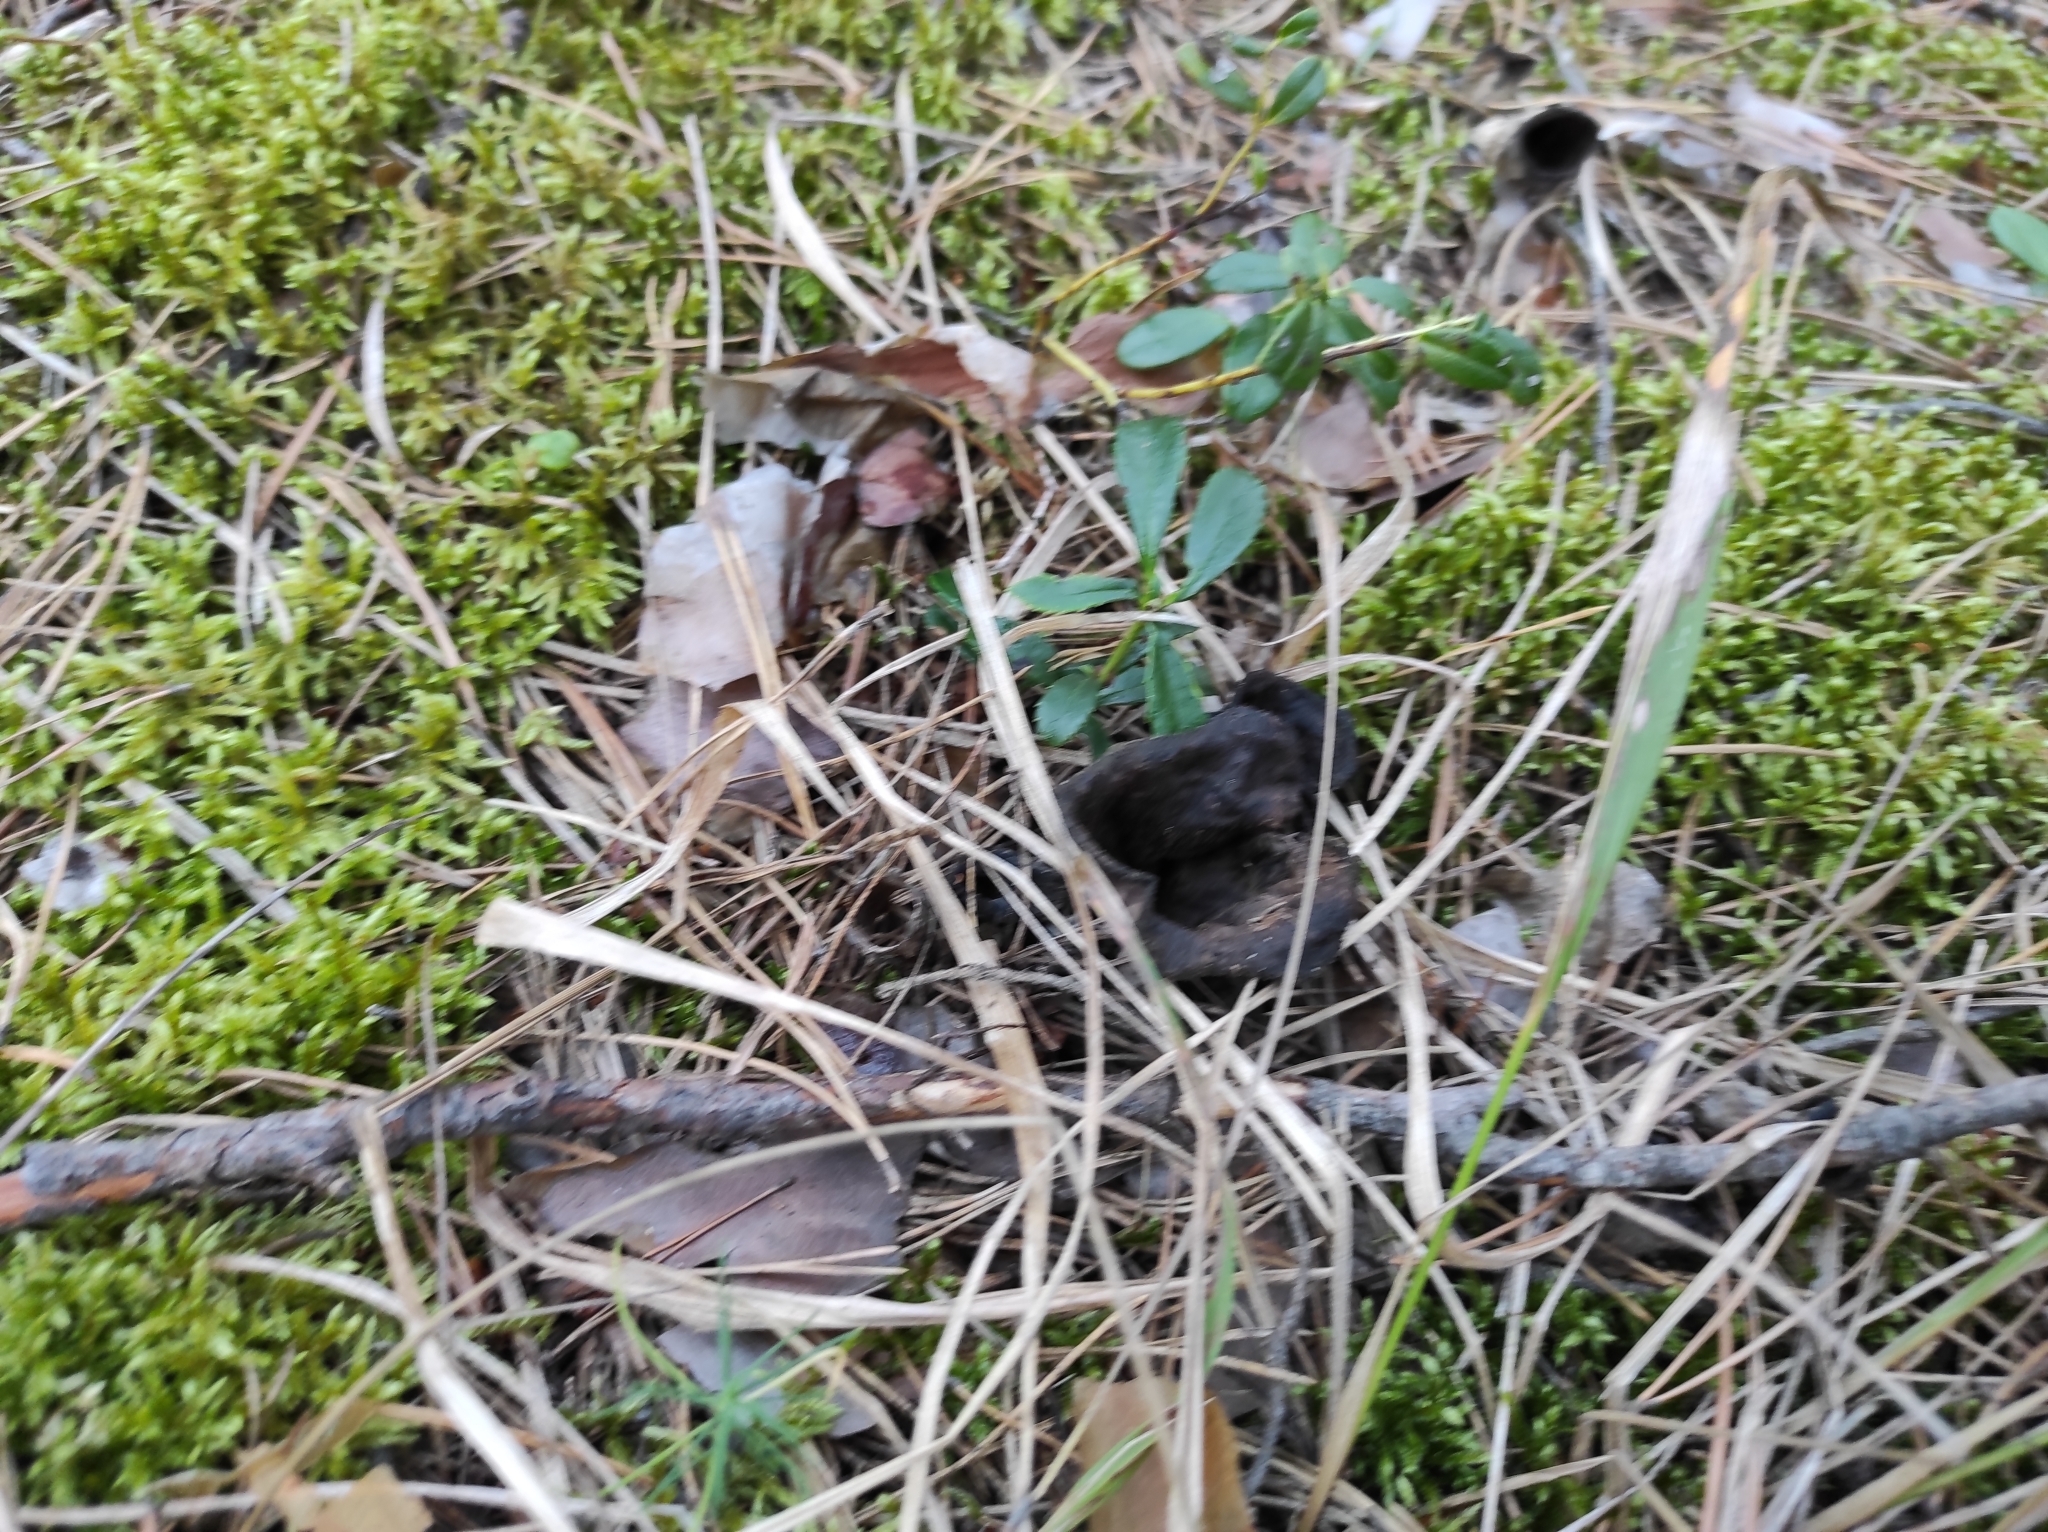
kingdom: Fungi
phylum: Basidiomycota
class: Agaricomycetes
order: Cantharellales
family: Hydnaceae
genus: Craterellus
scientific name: Craterellus cornucopioides
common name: Horn of plenty
